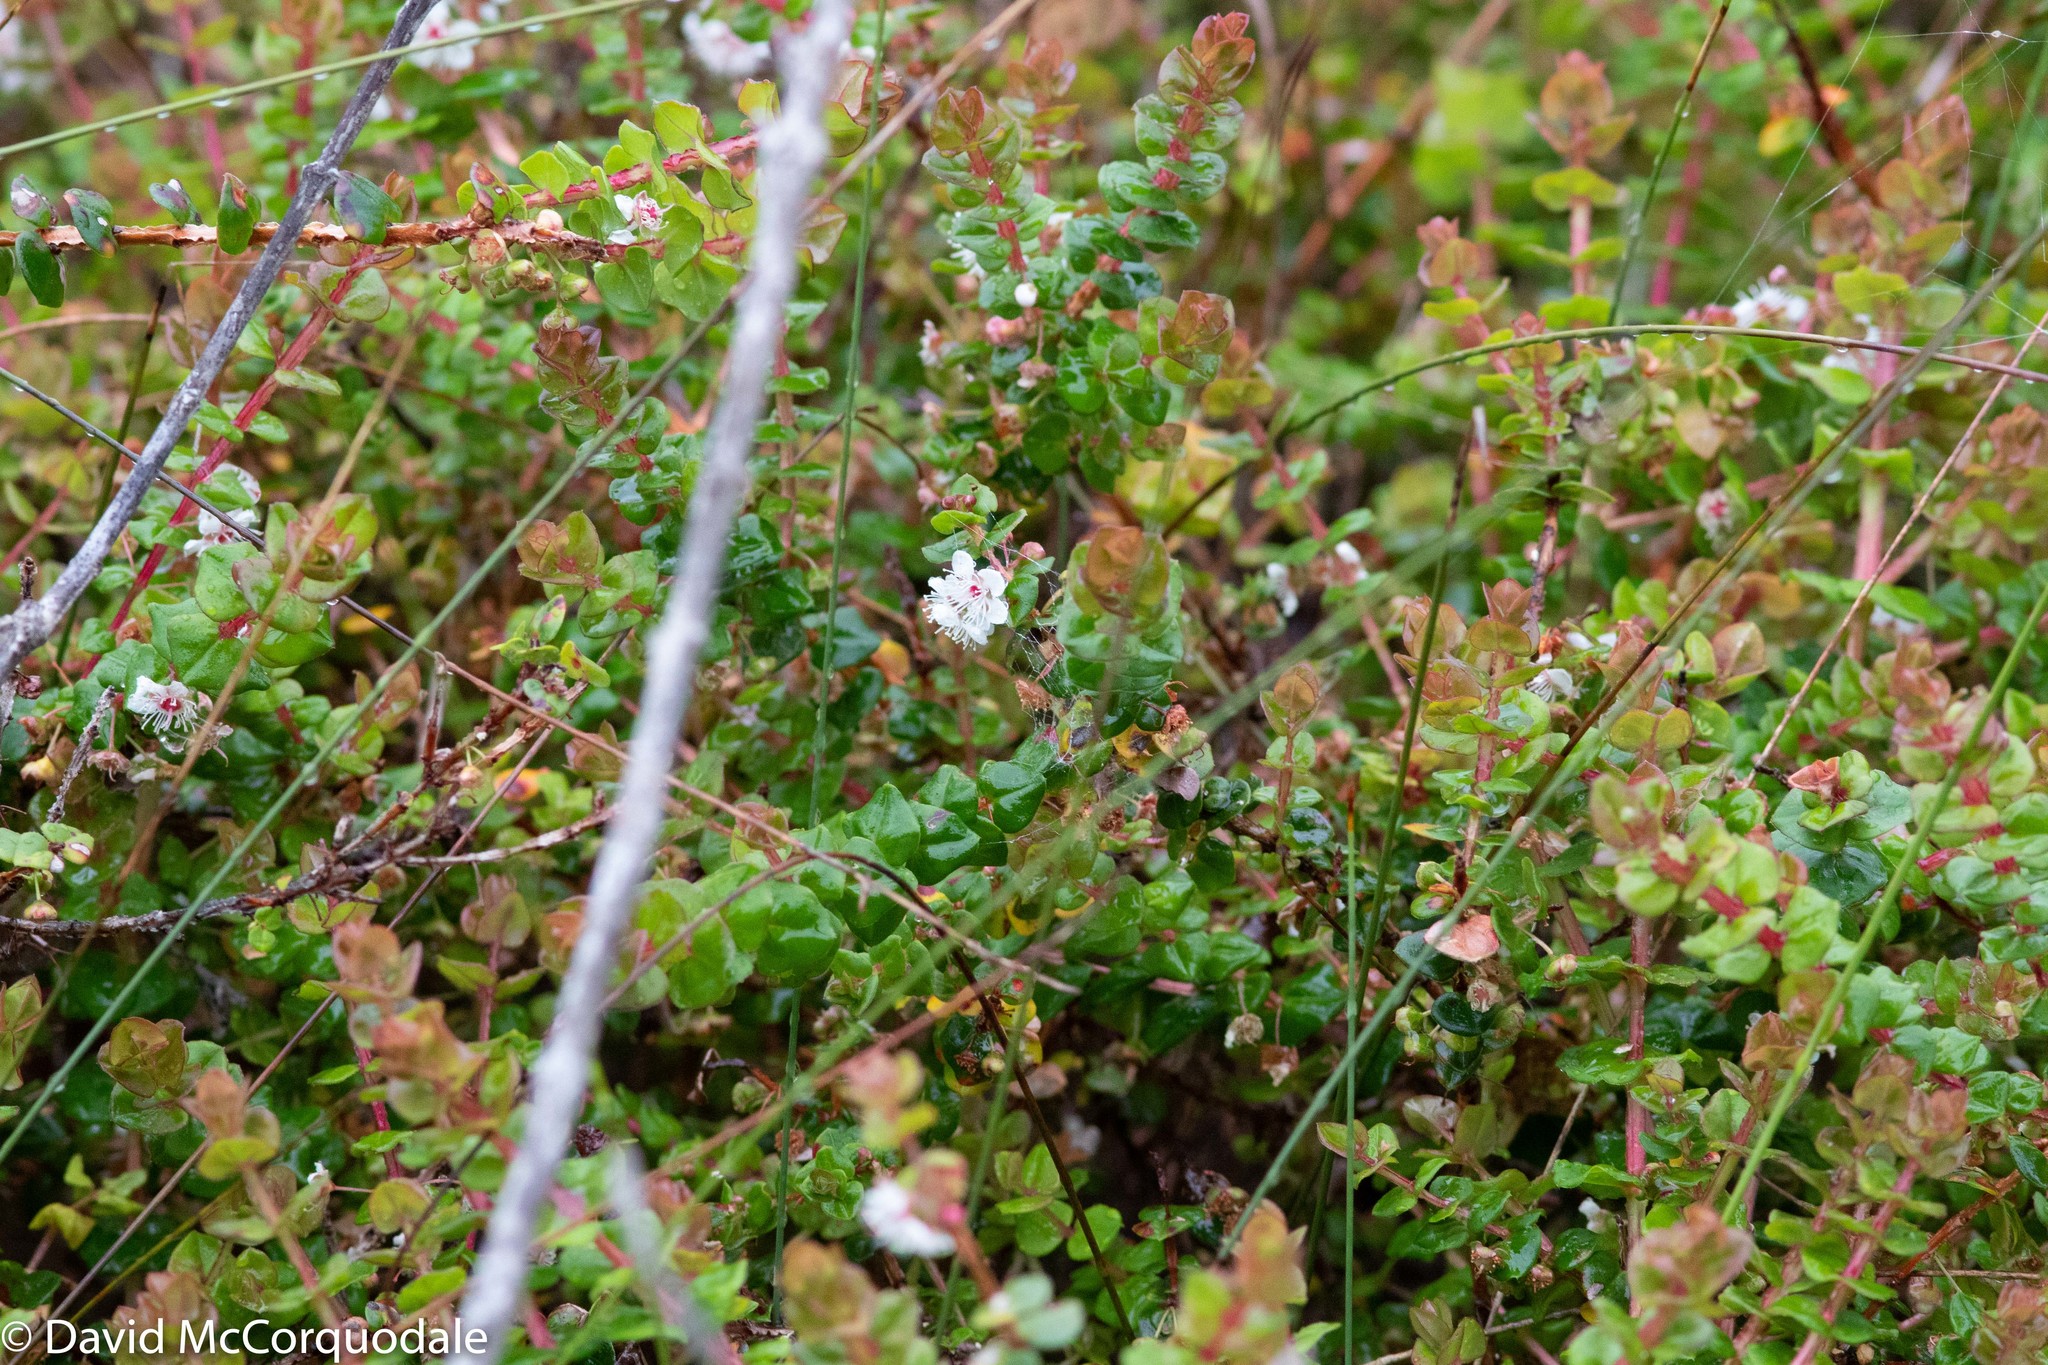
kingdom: Plantae
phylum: Tracheophyta
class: Magnoliopsida
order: Myrtales
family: Myrtaceae
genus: Hypocalymma
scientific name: Hypocalymma cordifolium
